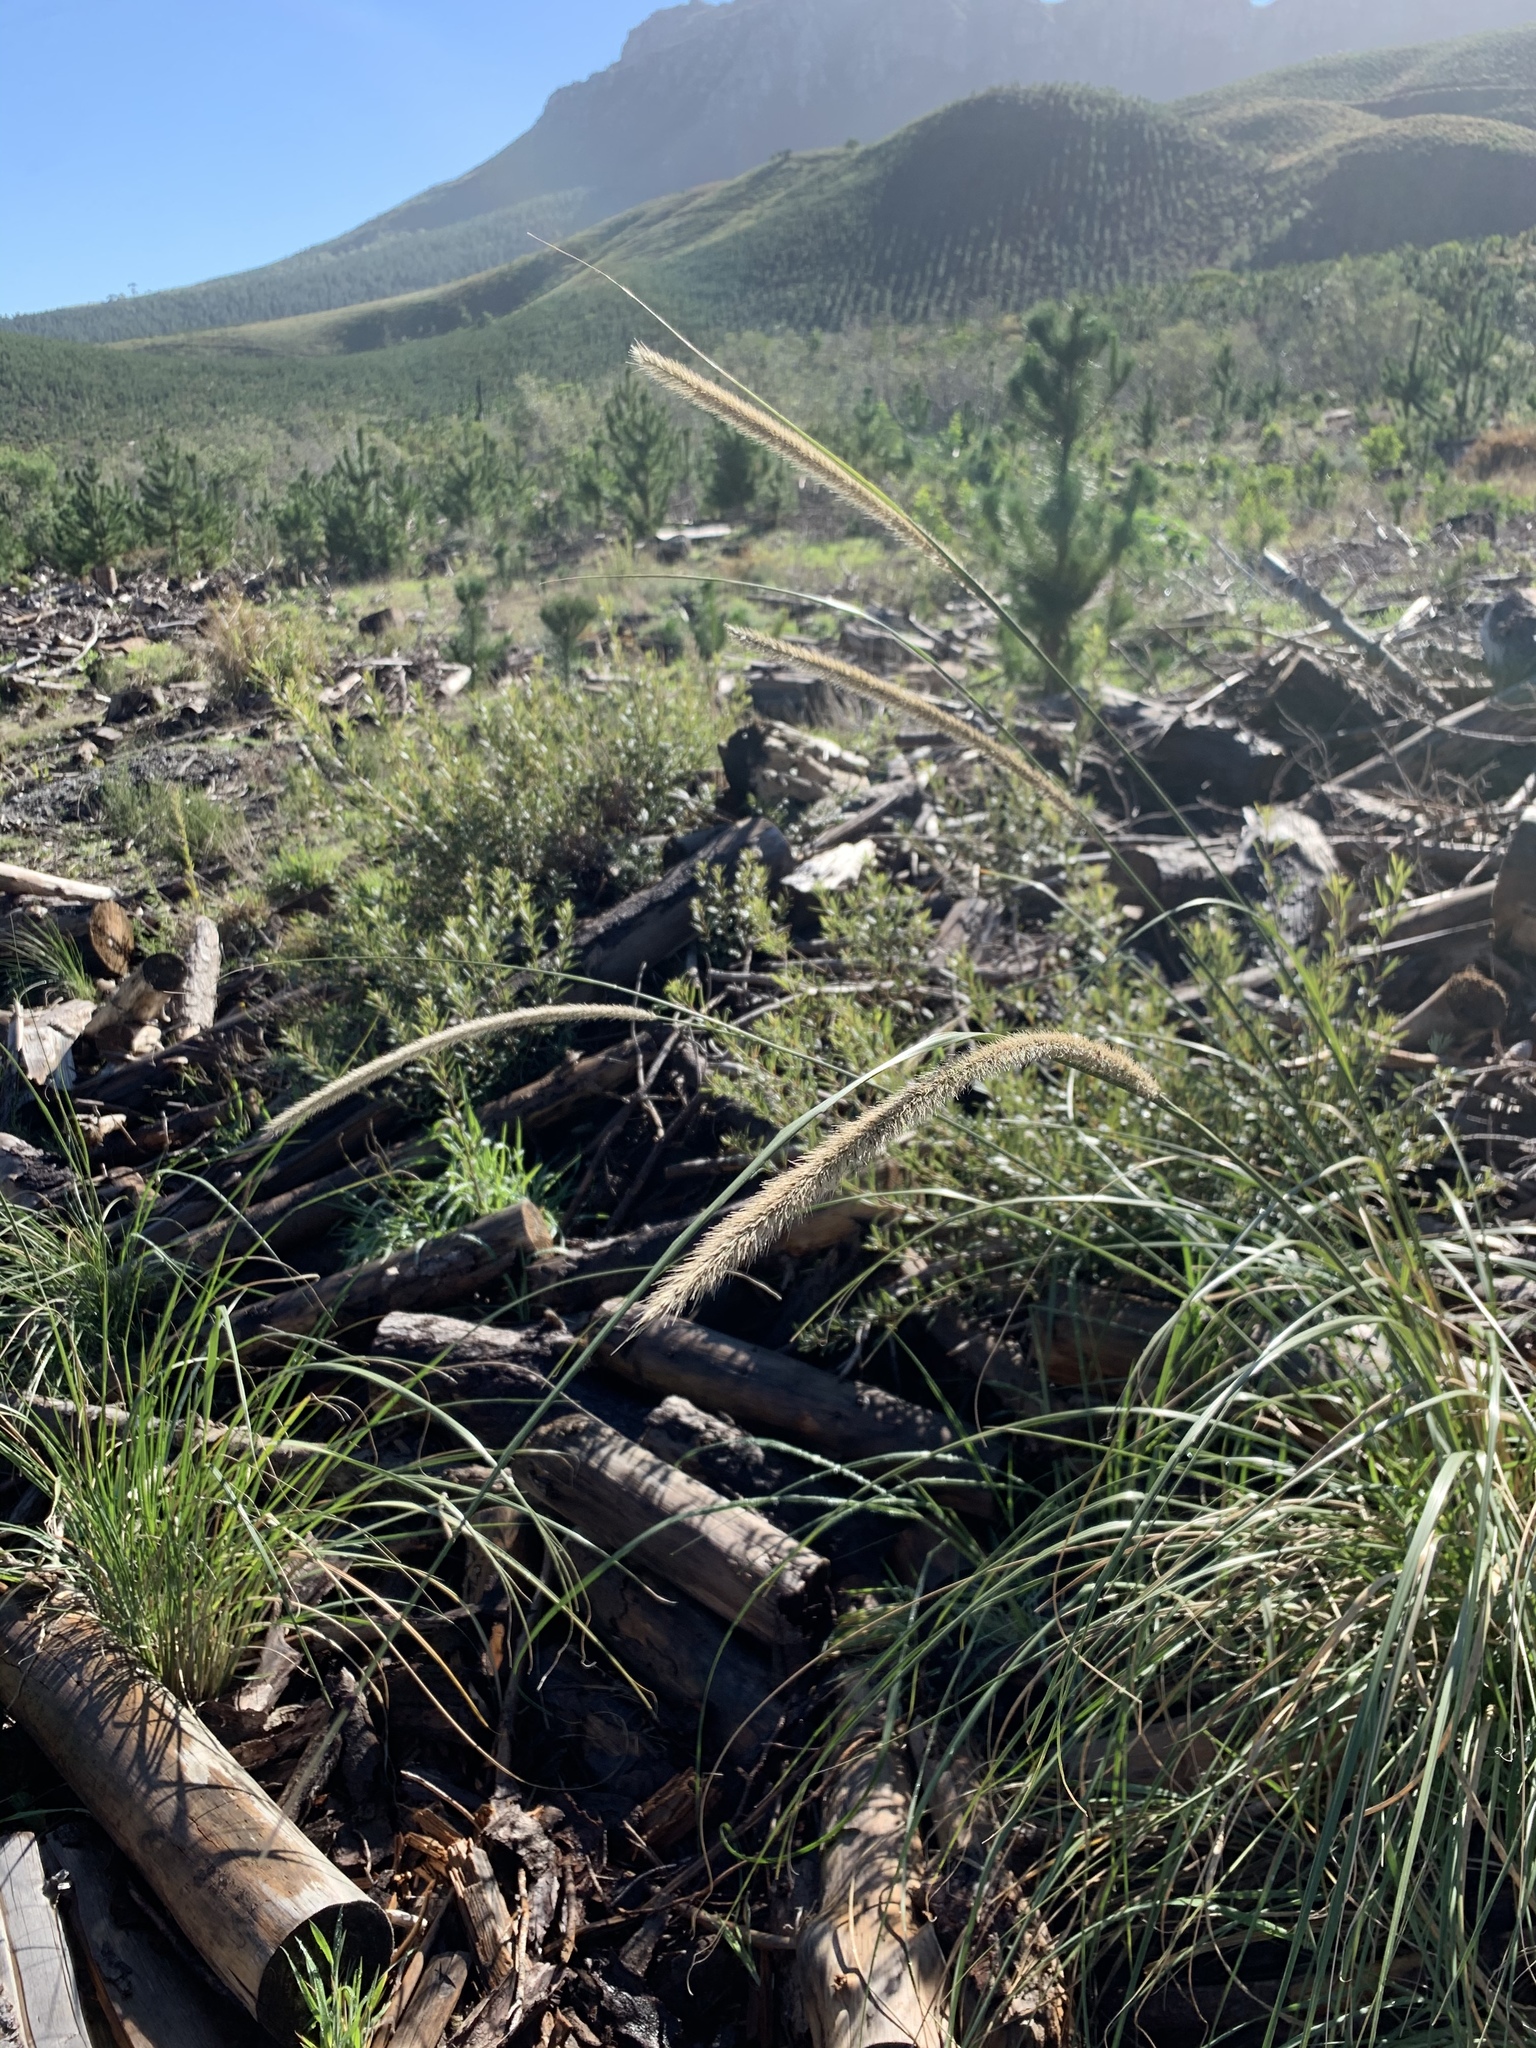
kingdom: Plantae
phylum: Tracheophyta
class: Liliopsida
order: Poales
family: Poaceae
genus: Cenchrus
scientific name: Cenchrus caudatus
